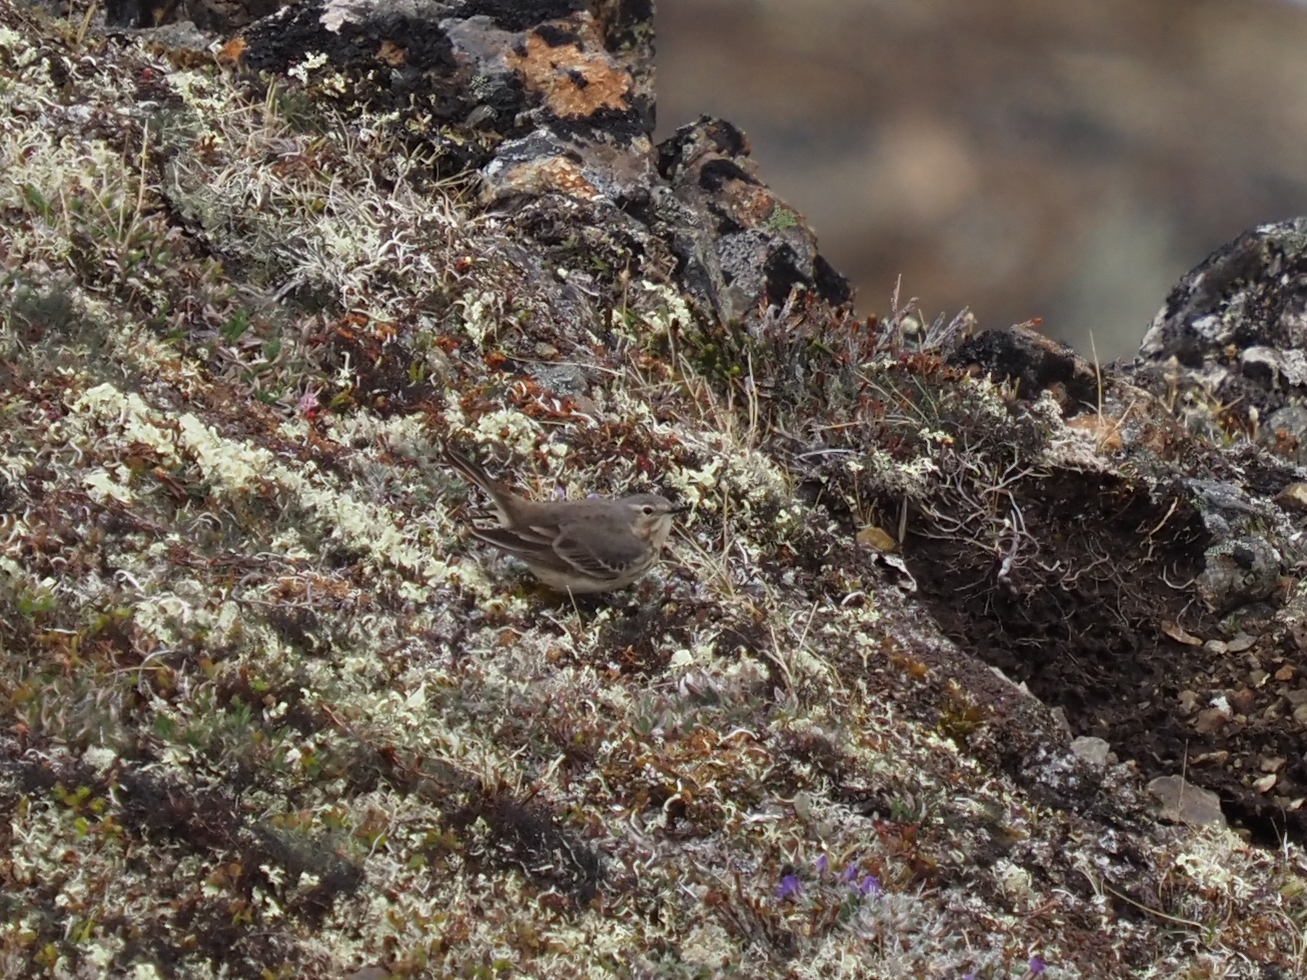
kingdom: Animalia
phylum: Chordata
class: Aves
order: Passeriformes
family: Motacillidae
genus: Anthus
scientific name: Anthus rubescens
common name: Buff-bellied pipit
